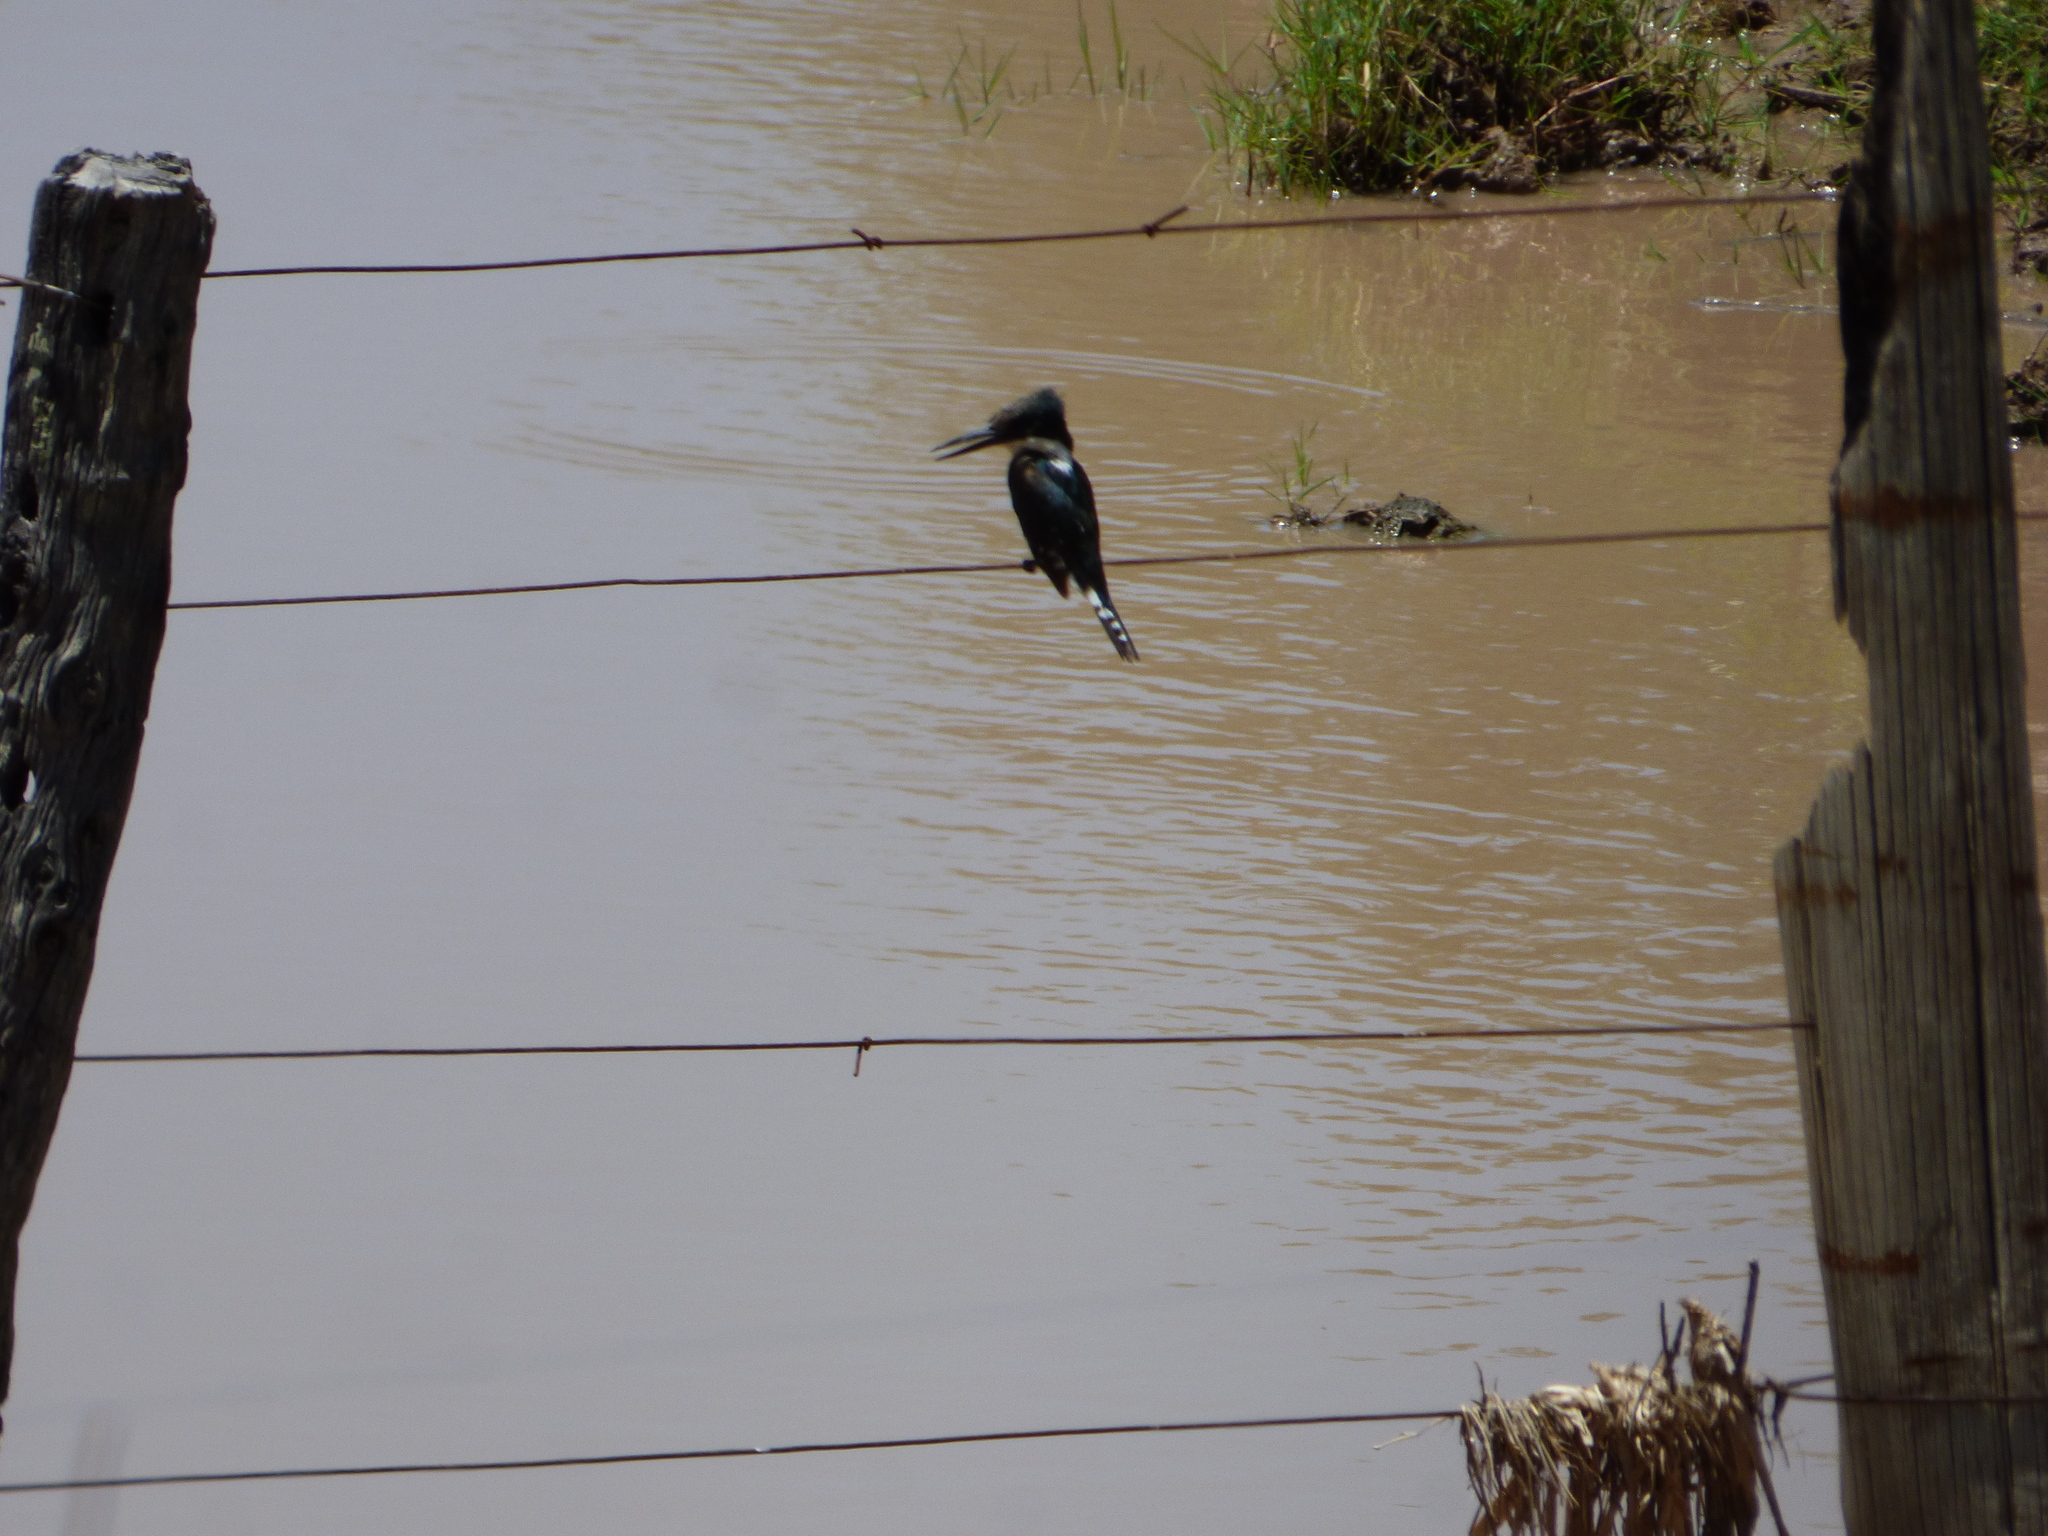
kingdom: Animalia
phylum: Chordata
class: Aves
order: Coraciiformes
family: Alcedinidae
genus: Chloroceryle
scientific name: Chloroceryle americana
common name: Green kingfisher
